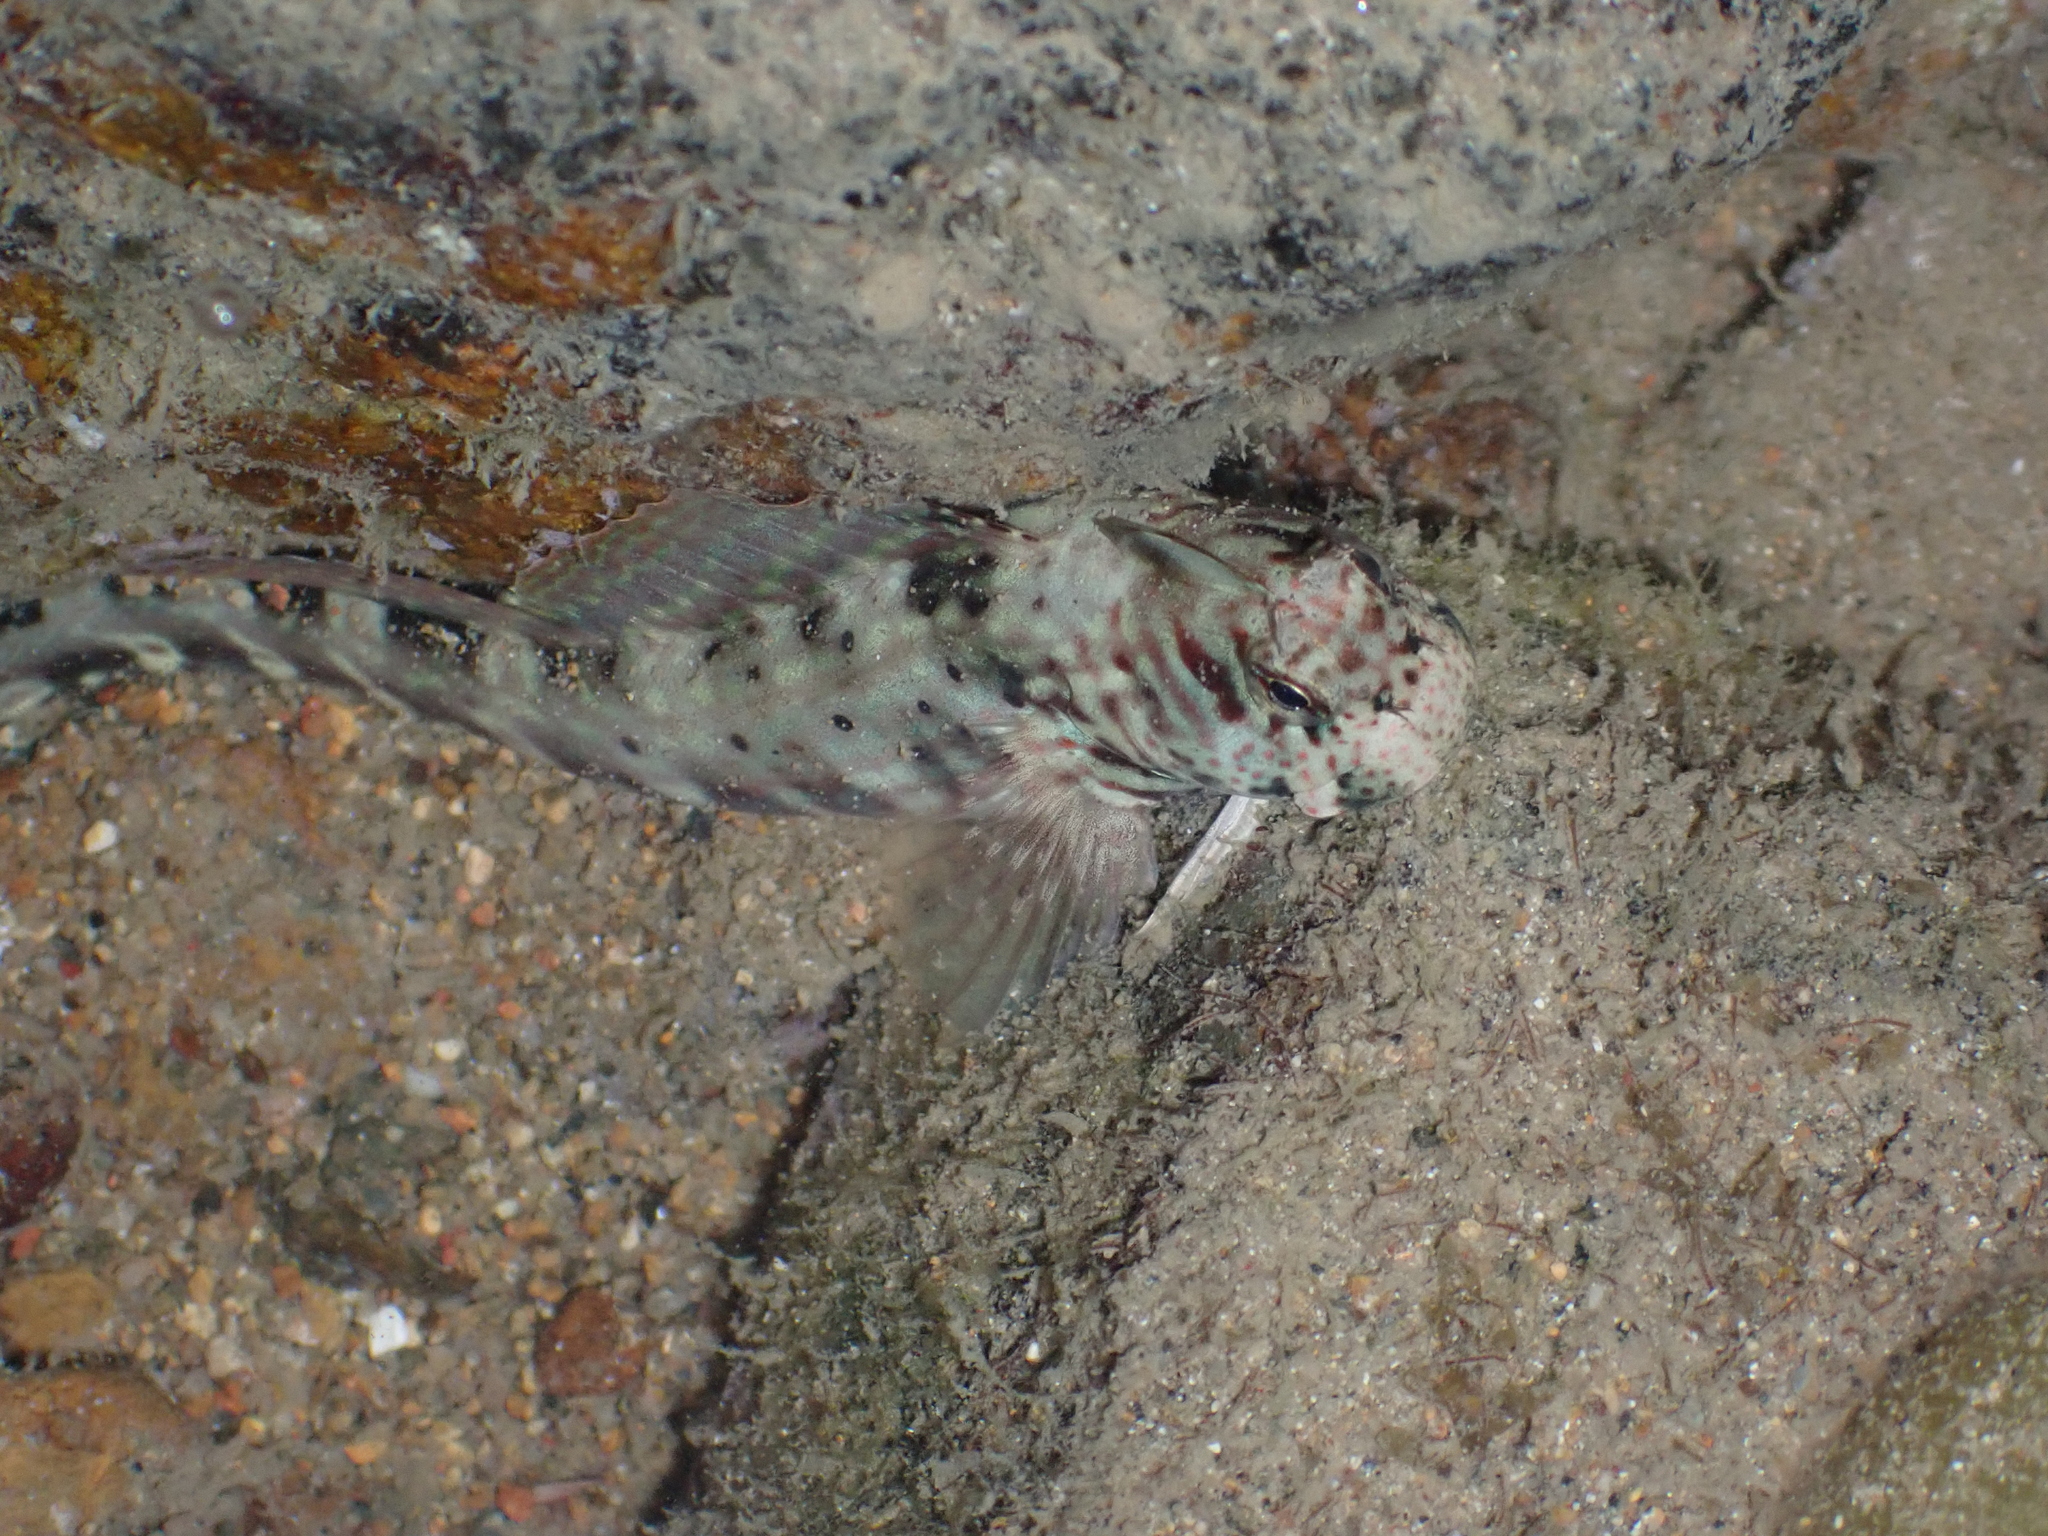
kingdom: Animalia
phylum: Chordata
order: Perciformes
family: Blenniidae
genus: Istiblennius
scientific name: Istiblennius dussumieri
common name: Dussumier's rockskipper
